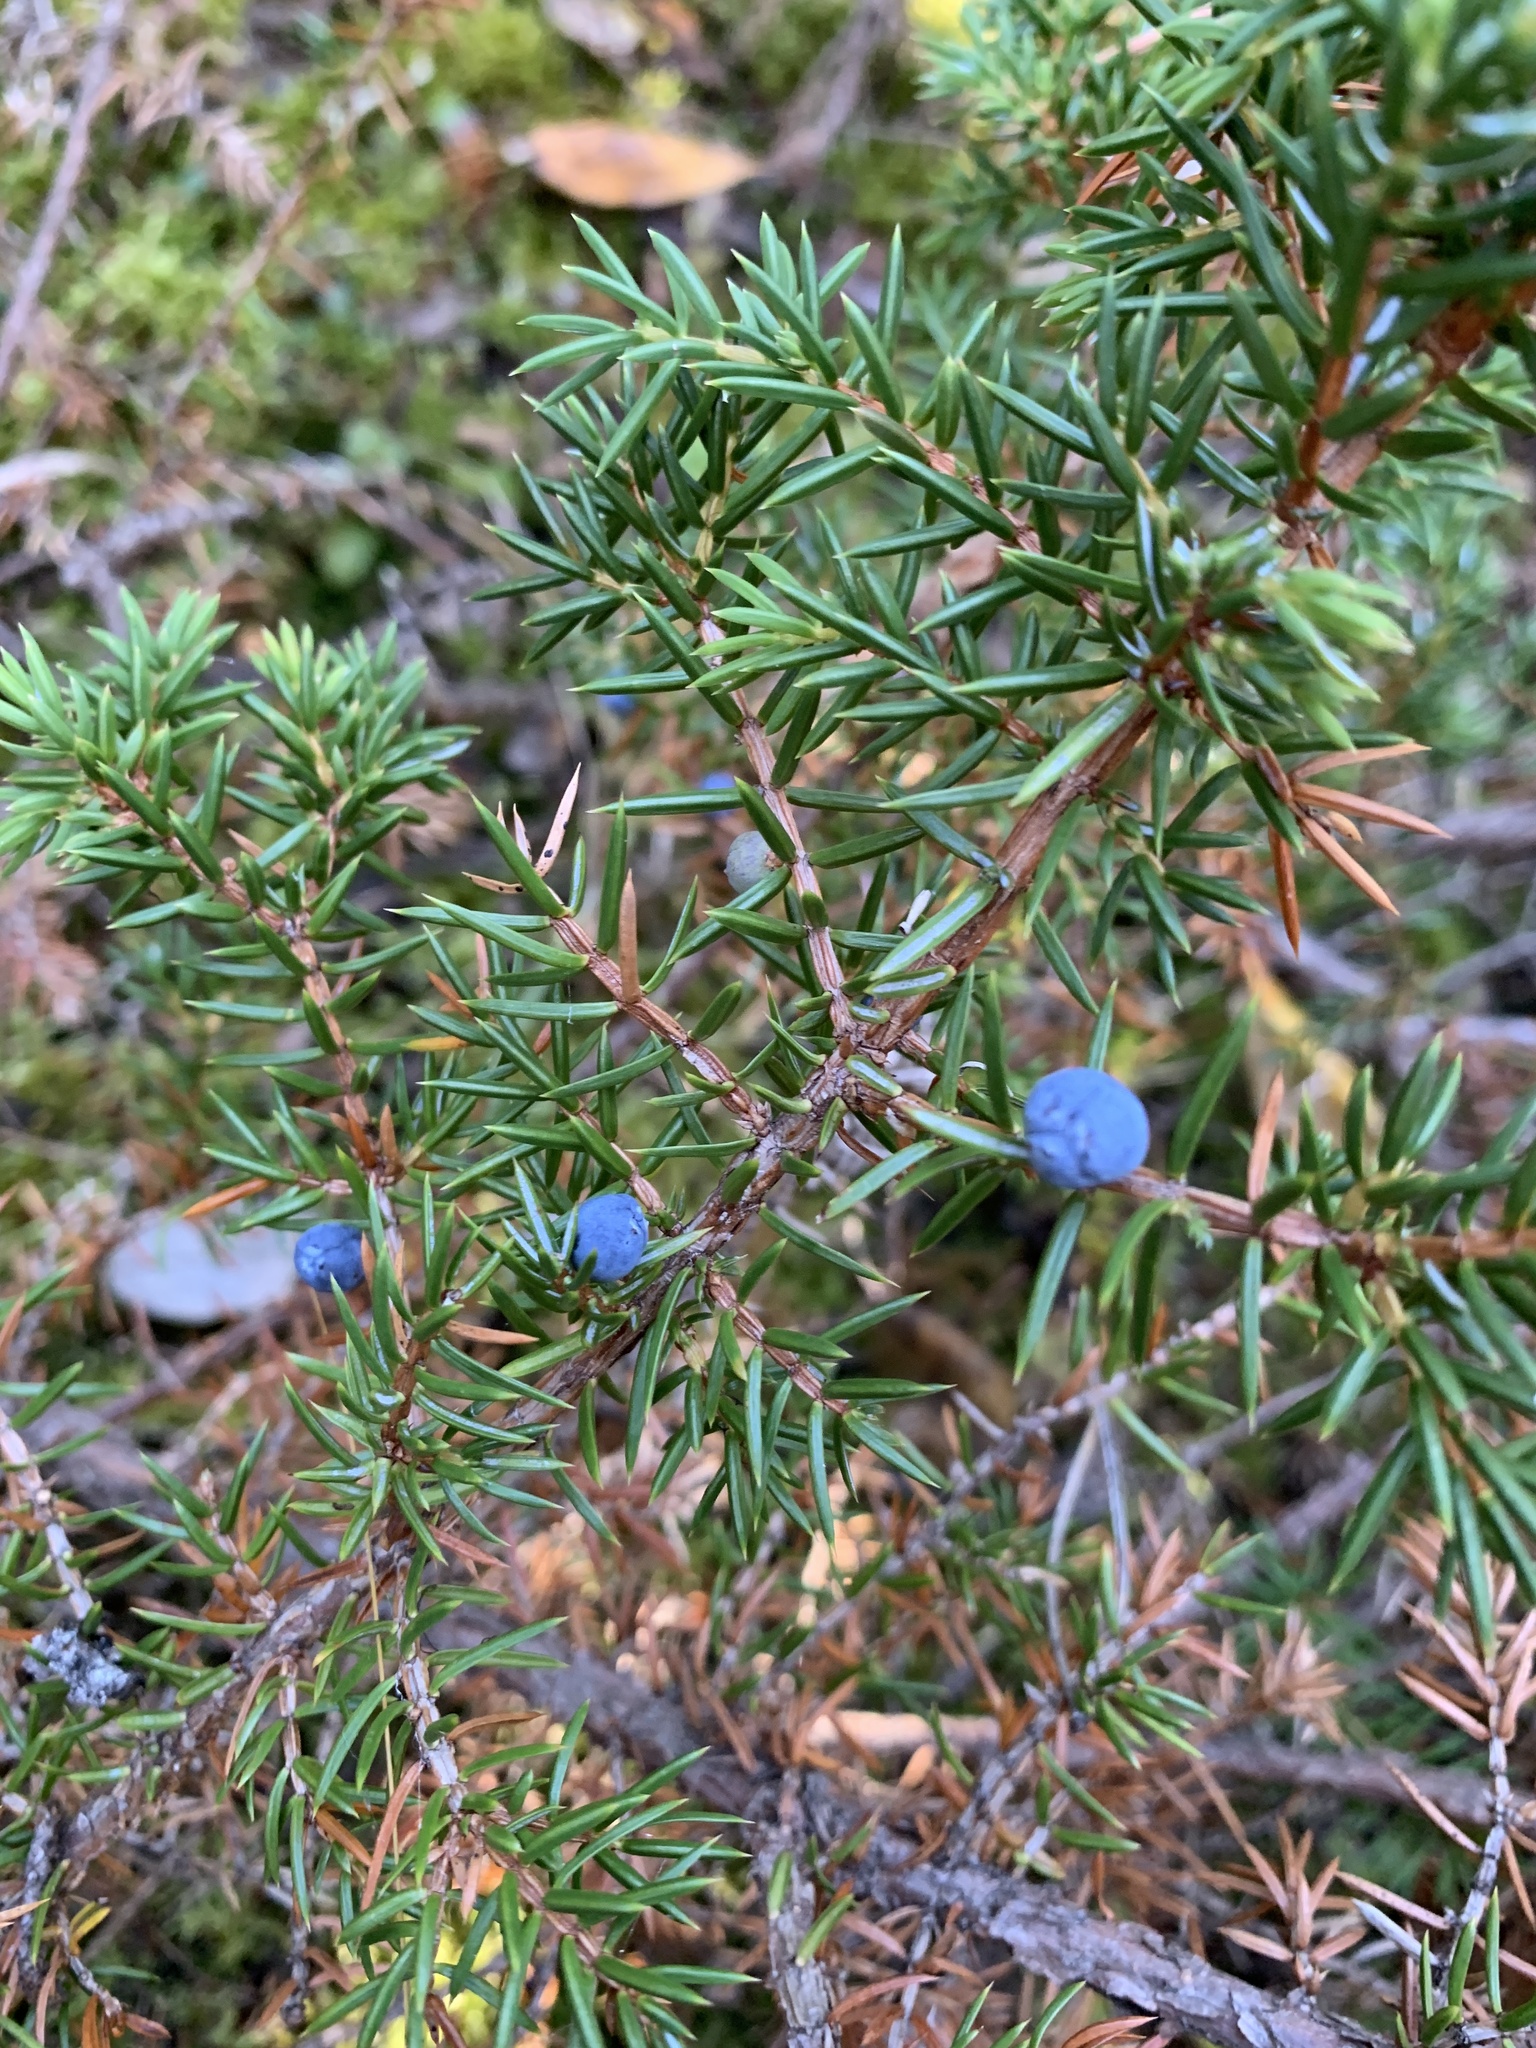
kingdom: Plantae
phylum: Tracheophyta
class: Pinopsida
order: Pinales
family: Cupressaceae
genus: Juniperus
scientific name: Juniperus communis
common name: Common juniper
